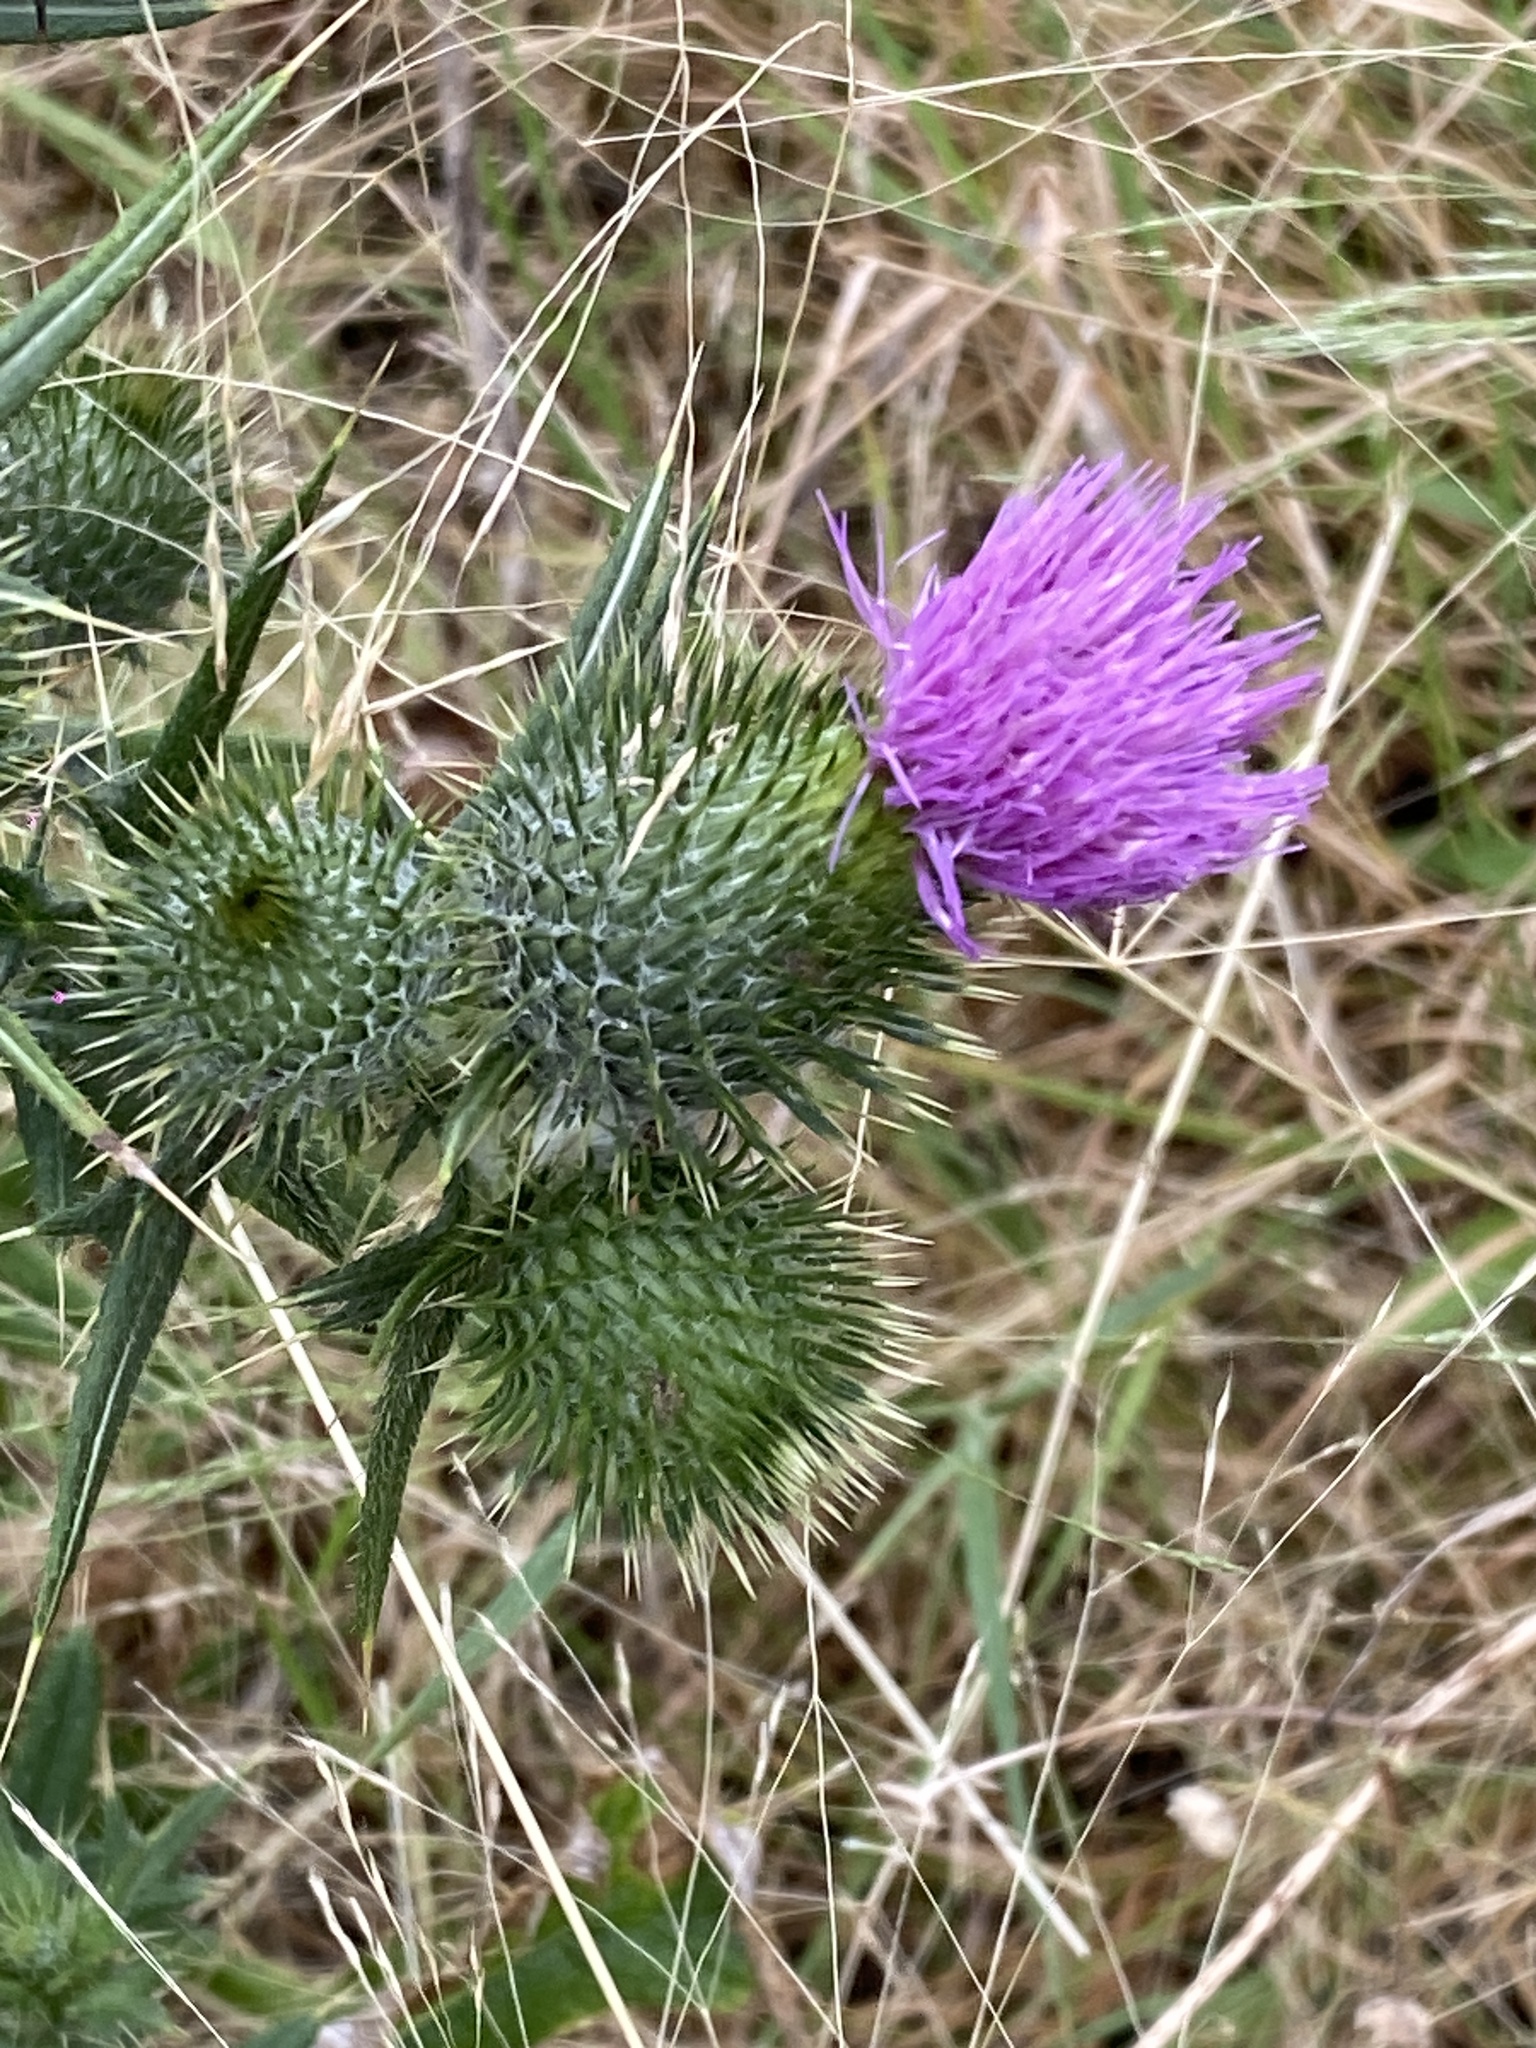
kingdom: Plantae
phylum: Tracheophyta
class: Magnoliopsida
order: Asterales
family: Asteraceae
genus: Cirsium
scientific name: Cirsium vulgare
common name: Bull thistle
